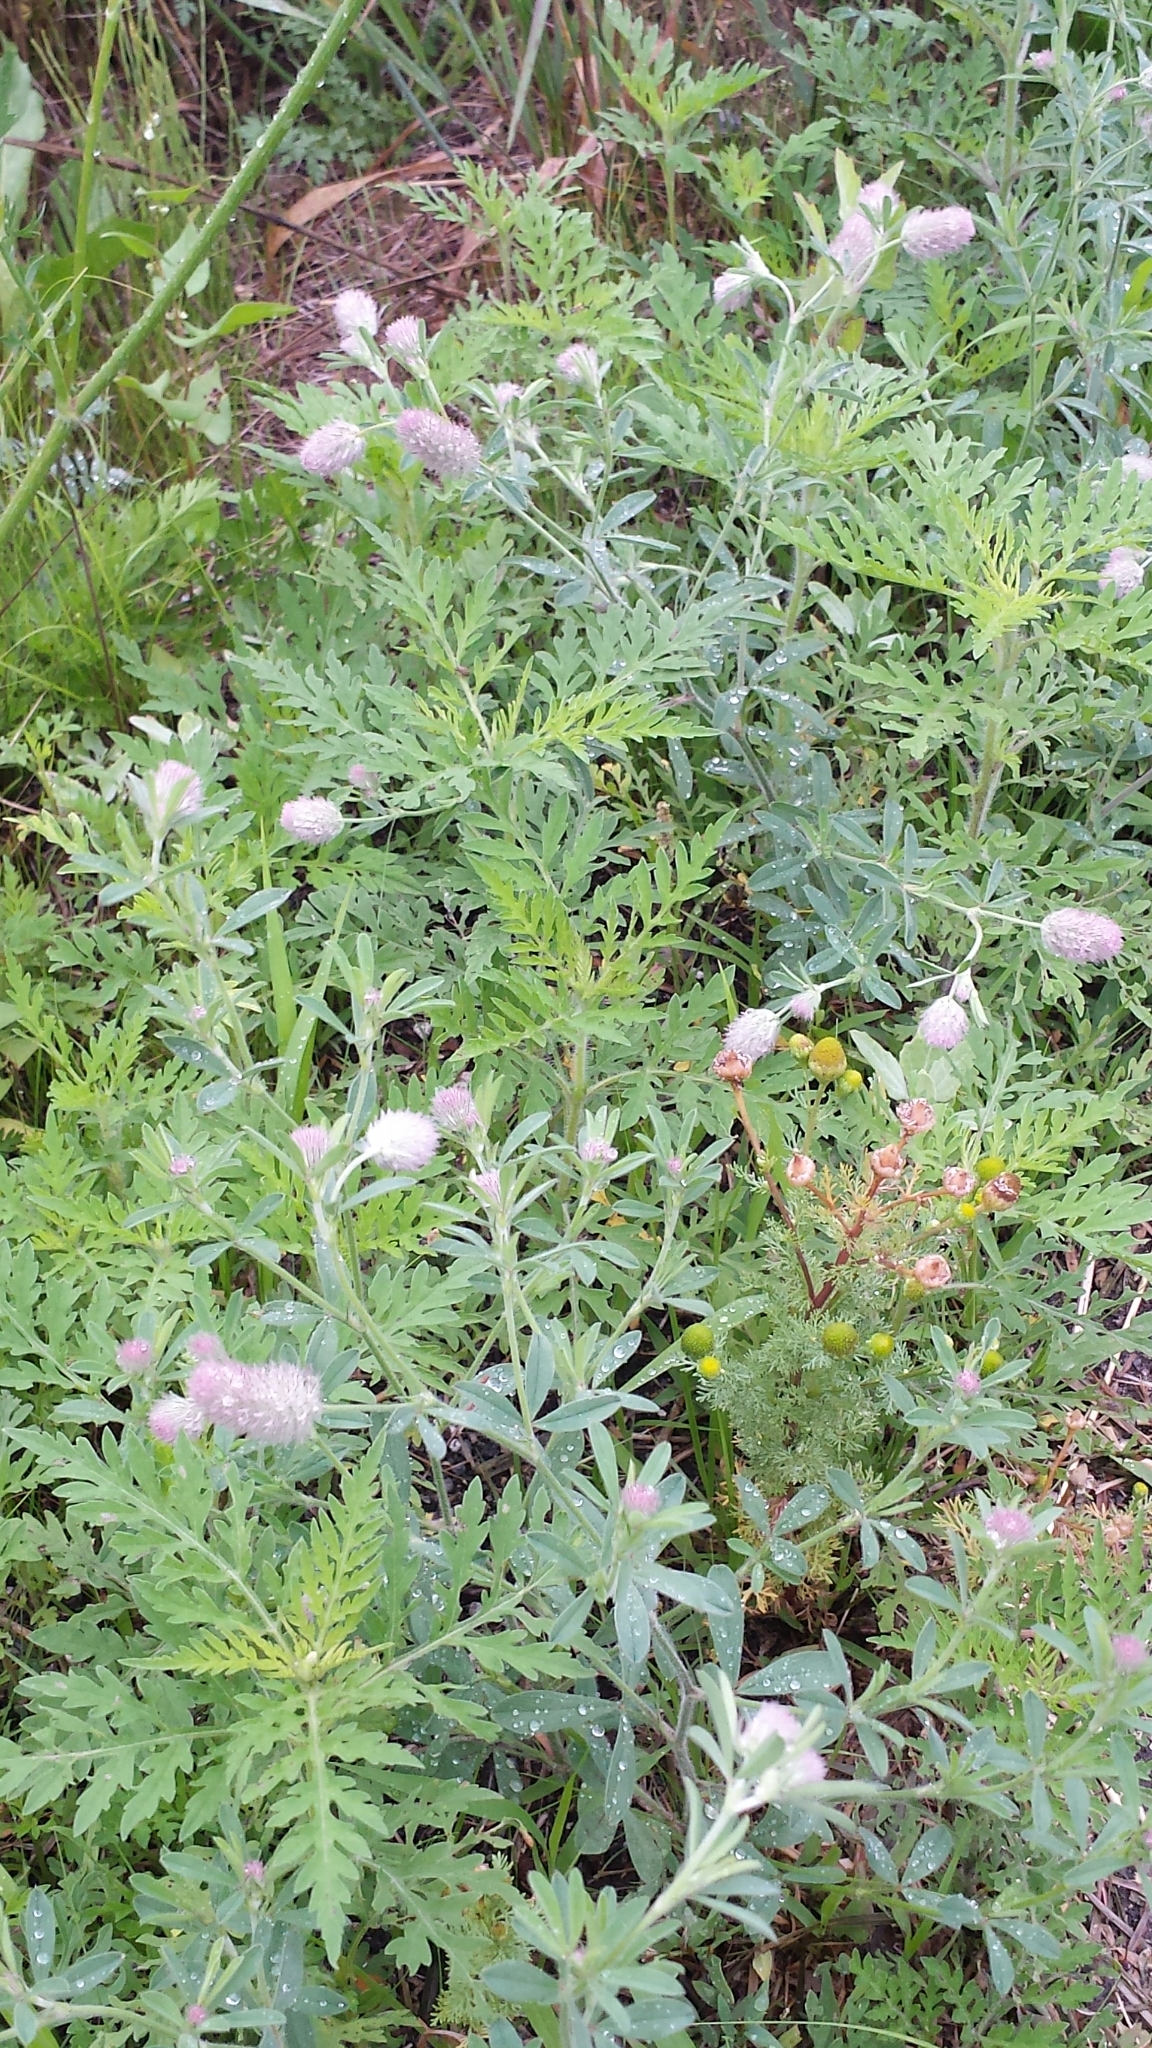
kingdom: Plantae
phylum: Tracheophyta
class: Magnoliopsida
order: Fabales
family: Fabaceae
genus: Trifolium
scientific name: Trifolium arvense
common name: Hare's-foot clover
